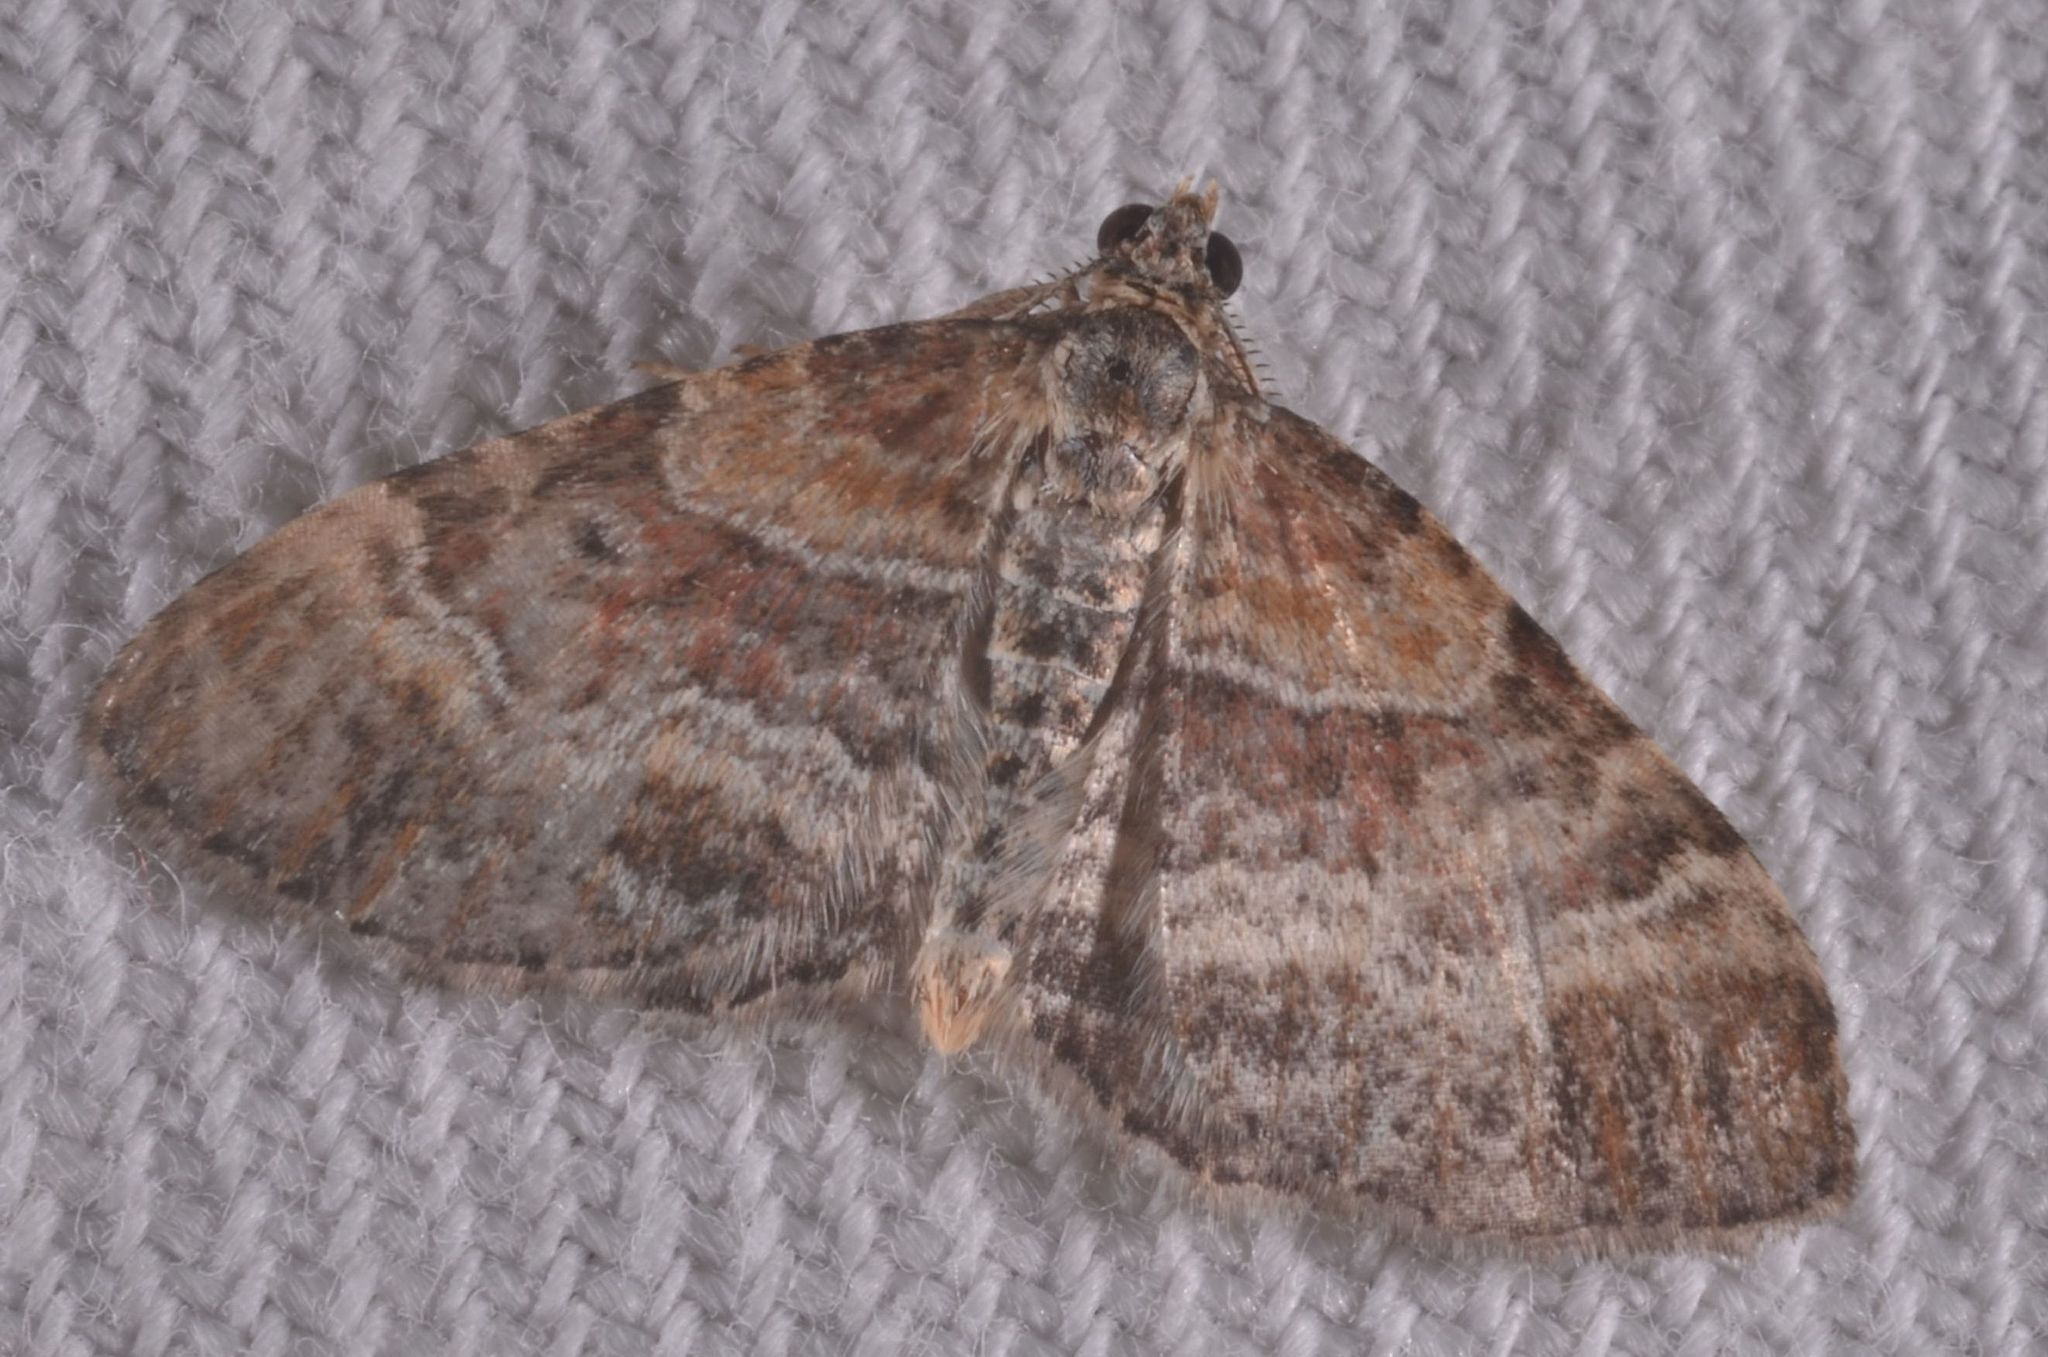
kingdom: Animalia
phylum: Arthropoda
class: Insecta
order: Lepidoptera
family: Geometridae
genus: Xanthorhoe
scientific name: Xanthorhoe ferrugata
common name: Dark-barred twin-spot carpet
